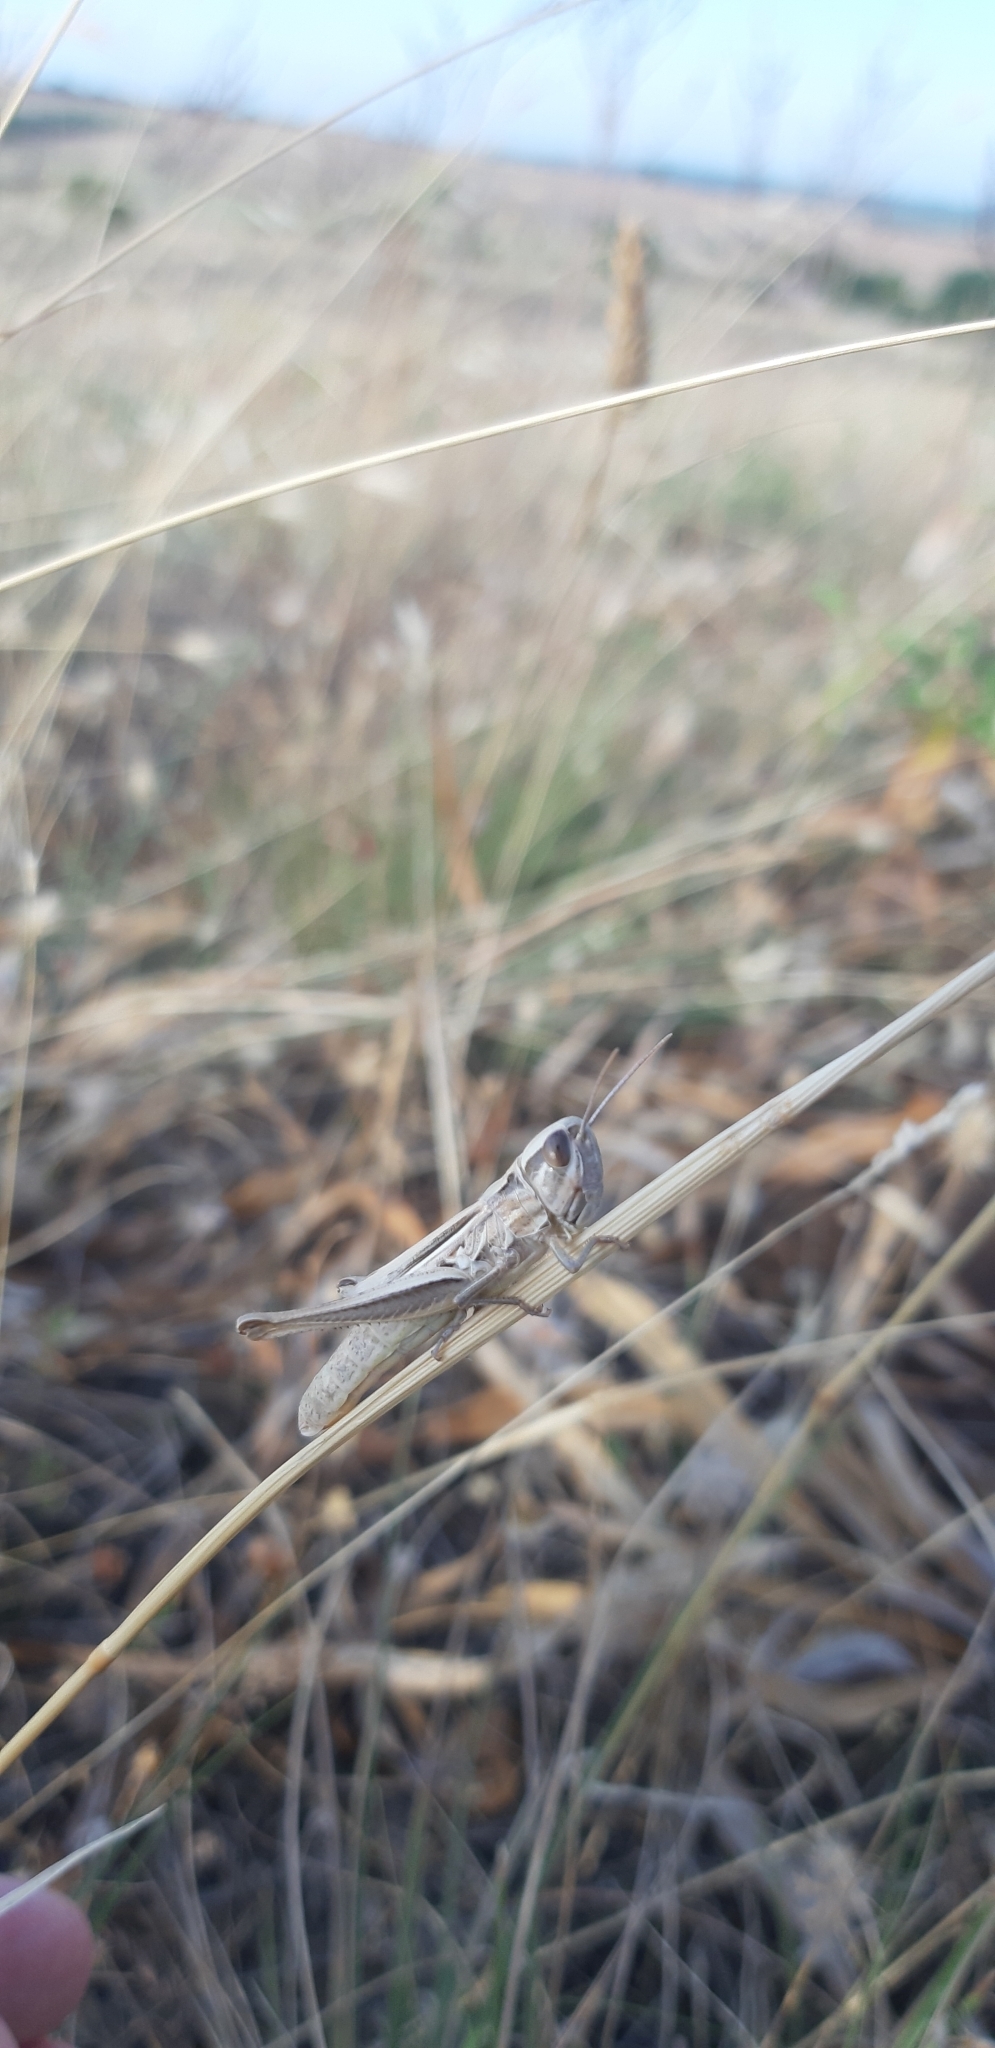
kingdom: Animalia
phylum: Arthropoda
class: Insecta
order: Orthoptera
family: Acrididae
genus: Euchorthippus
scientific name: Euchorthippus declivus
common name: Common straw grasshopper
